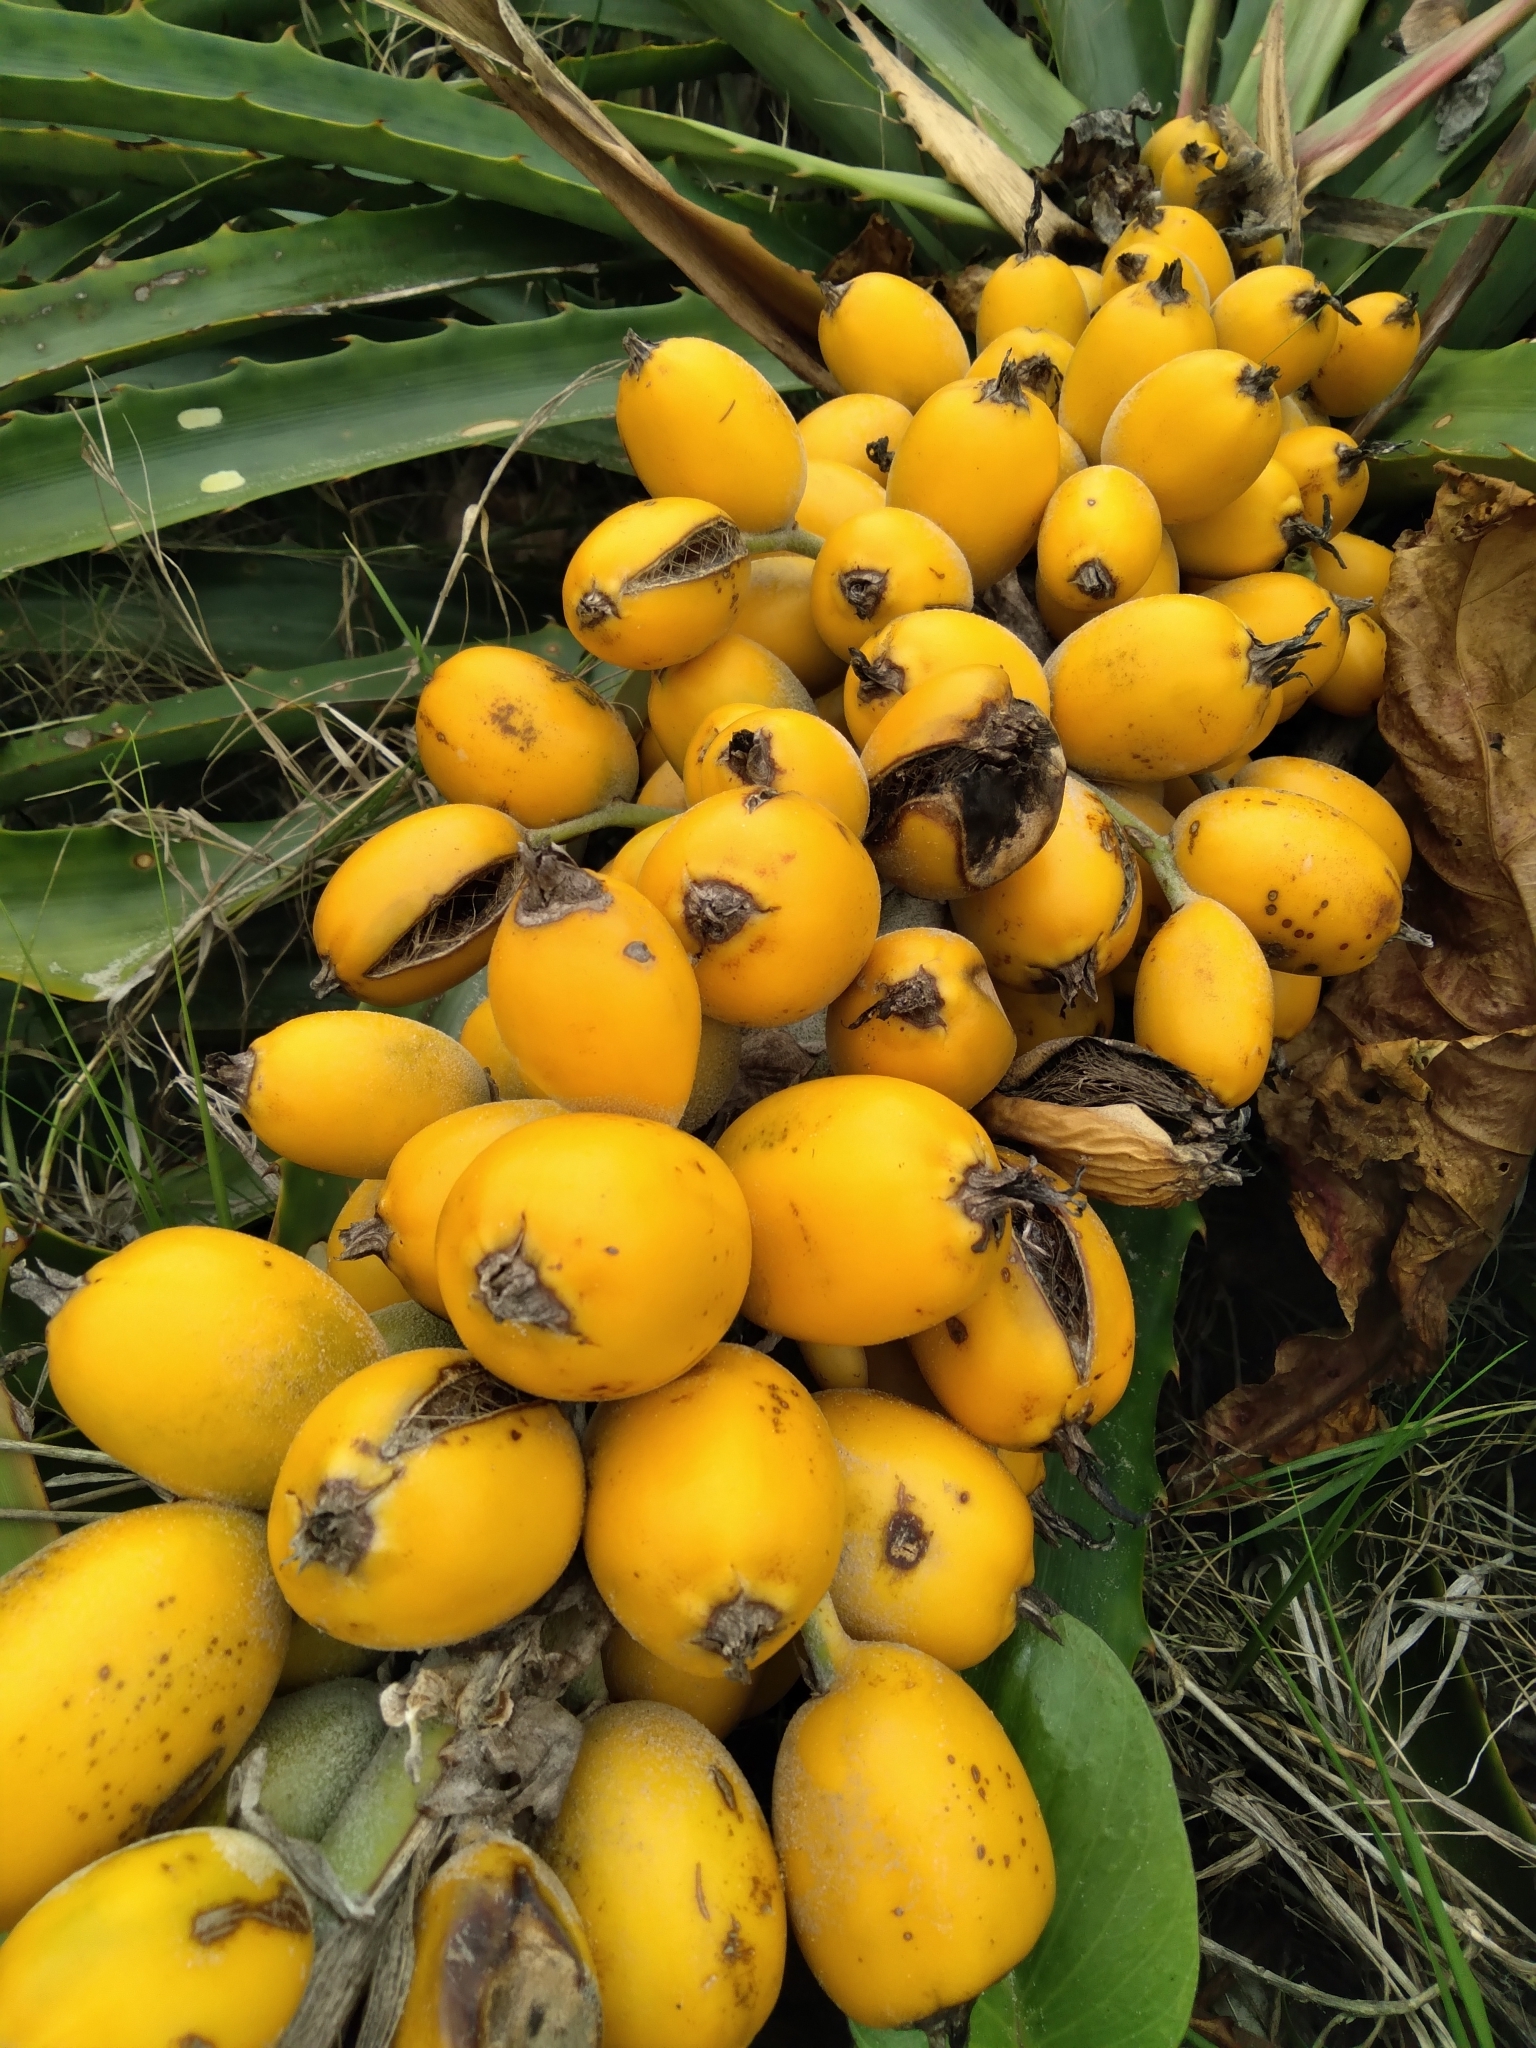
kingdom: Plantae
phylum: Tracheophyta
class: Liliopsida
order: Poales
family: Bromeliaceae
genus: Bromelia
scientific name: Bromelia antiacantha
